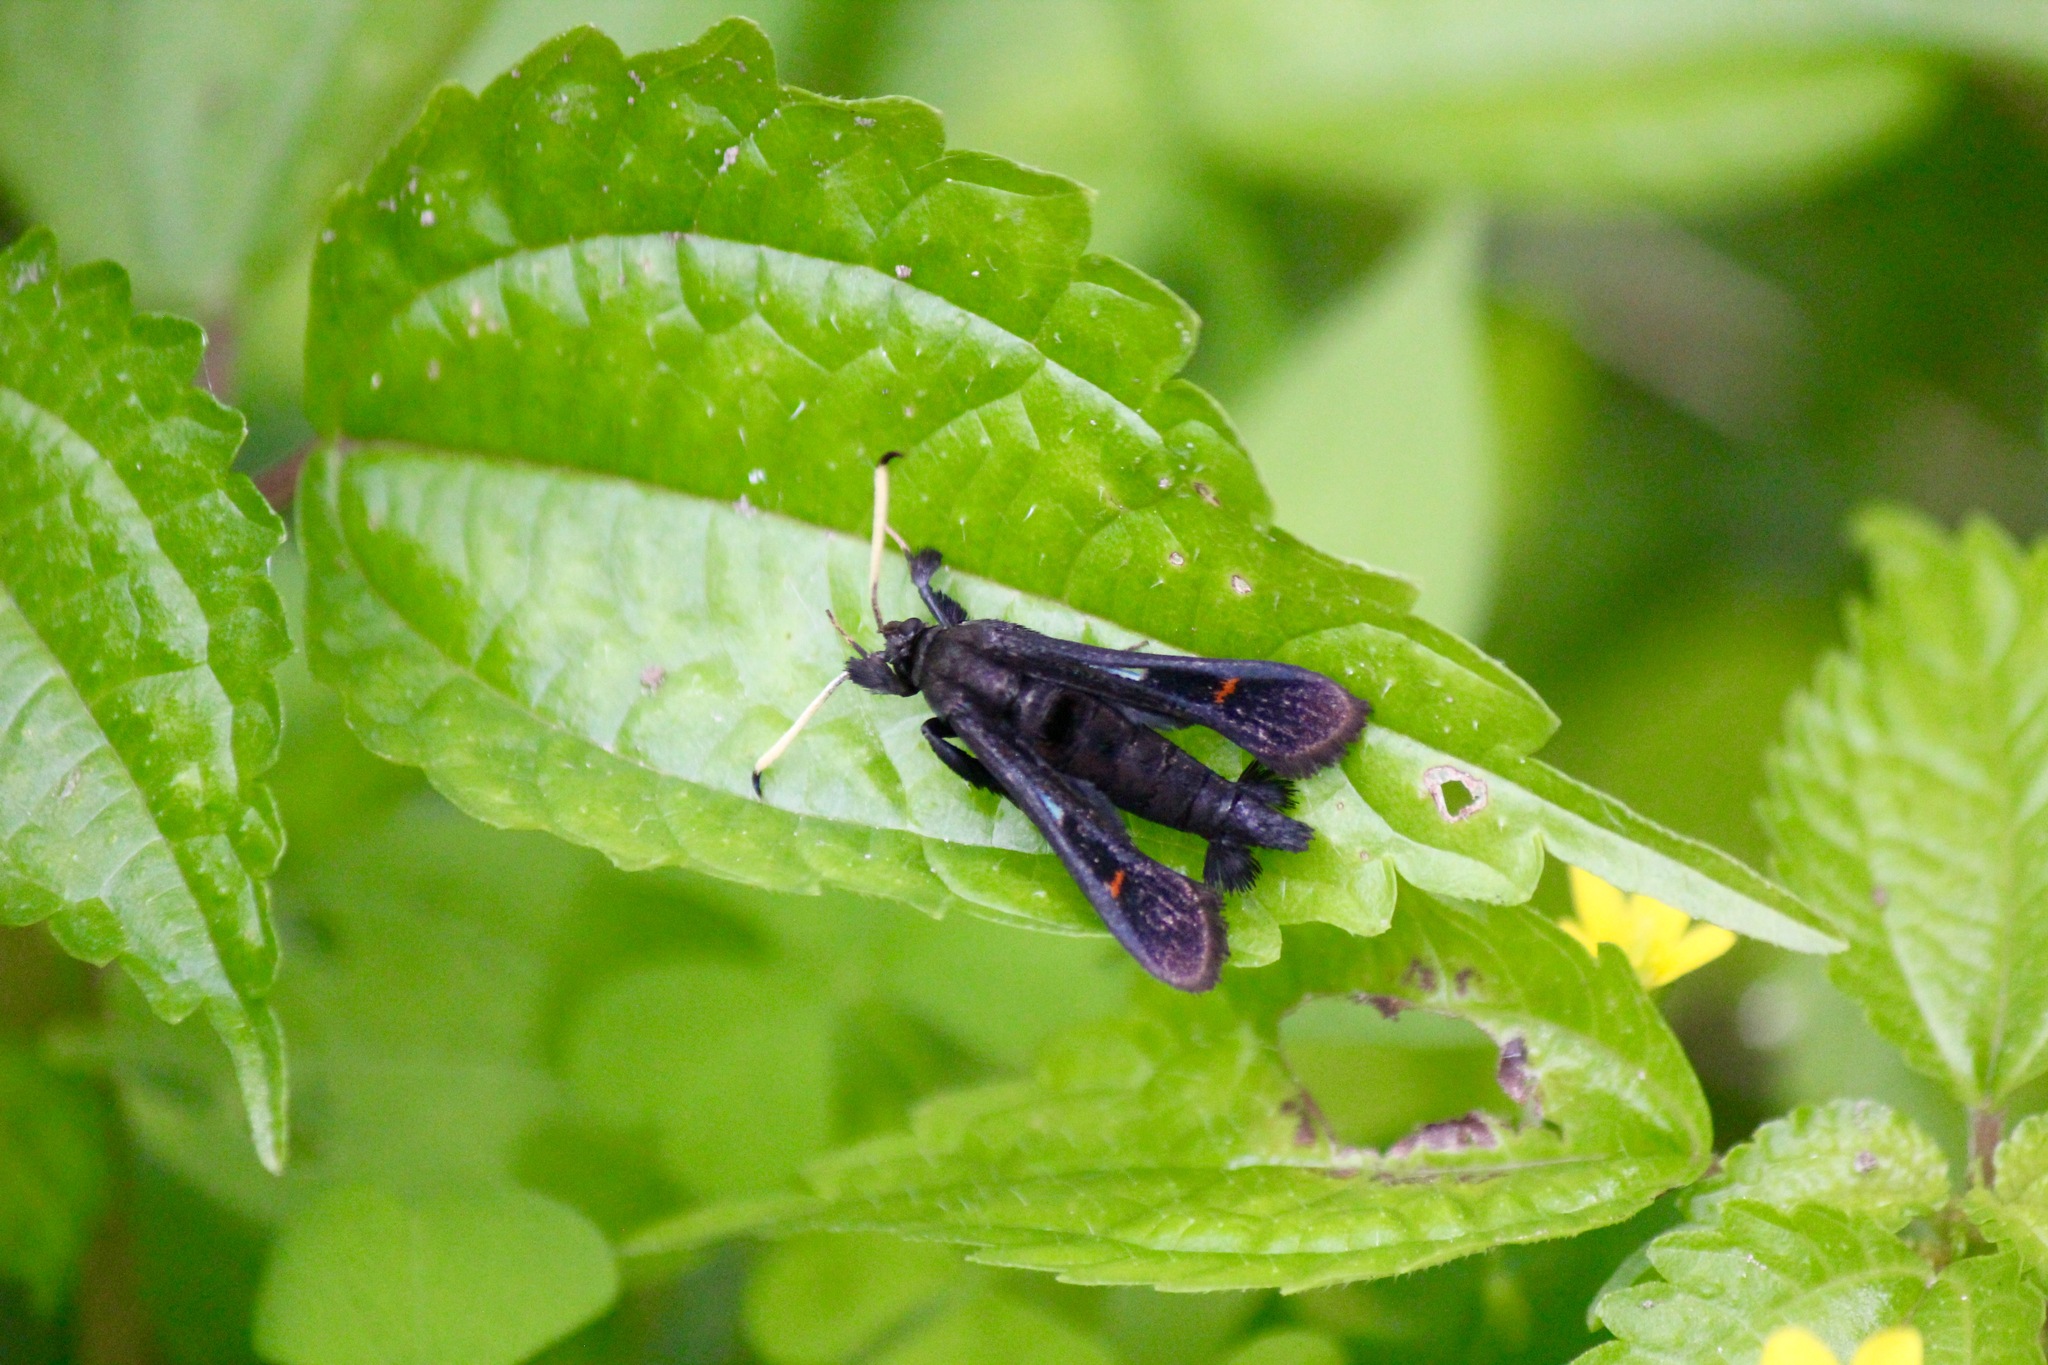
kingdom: Animalia
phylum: Arthropoda
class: Insecta
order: Lepidoptera
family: Sesiidae
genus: Albuna
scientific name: Albuna fraxini
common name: Virginia creeper clearwing
